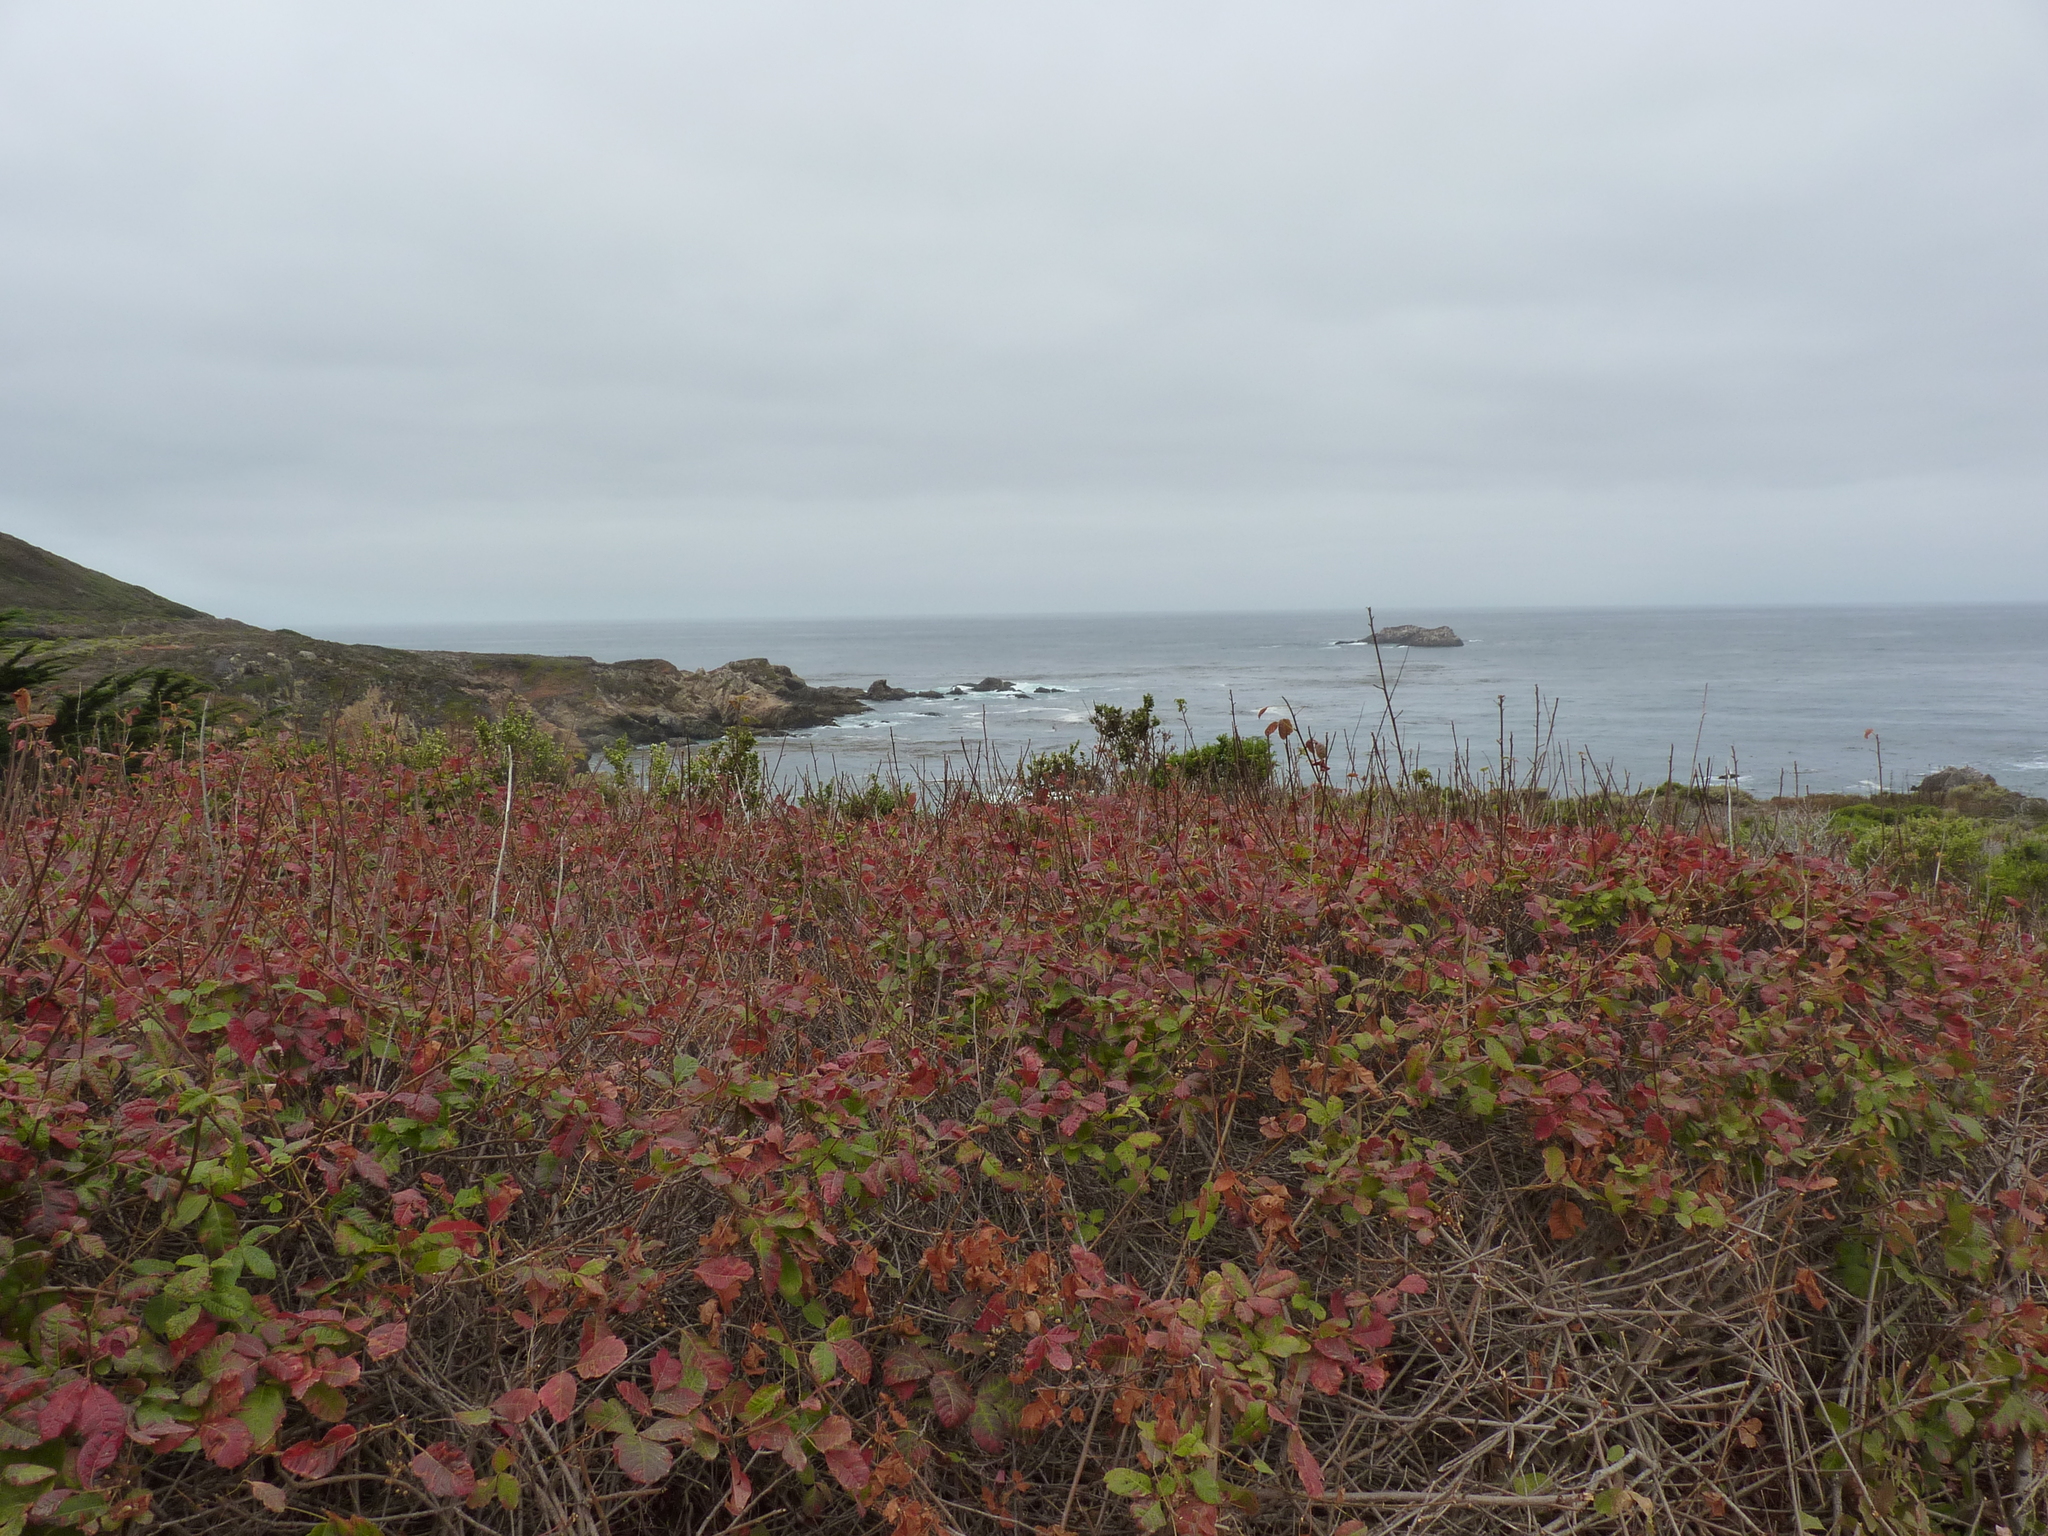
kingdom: Plantae
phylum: Tracheophyta
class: Magnoliopsida
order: Sapindales
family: Anacardiaceae
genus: Toxicodendron
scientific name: Toxicodendron diversilobum
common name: Pacific poison-oak
